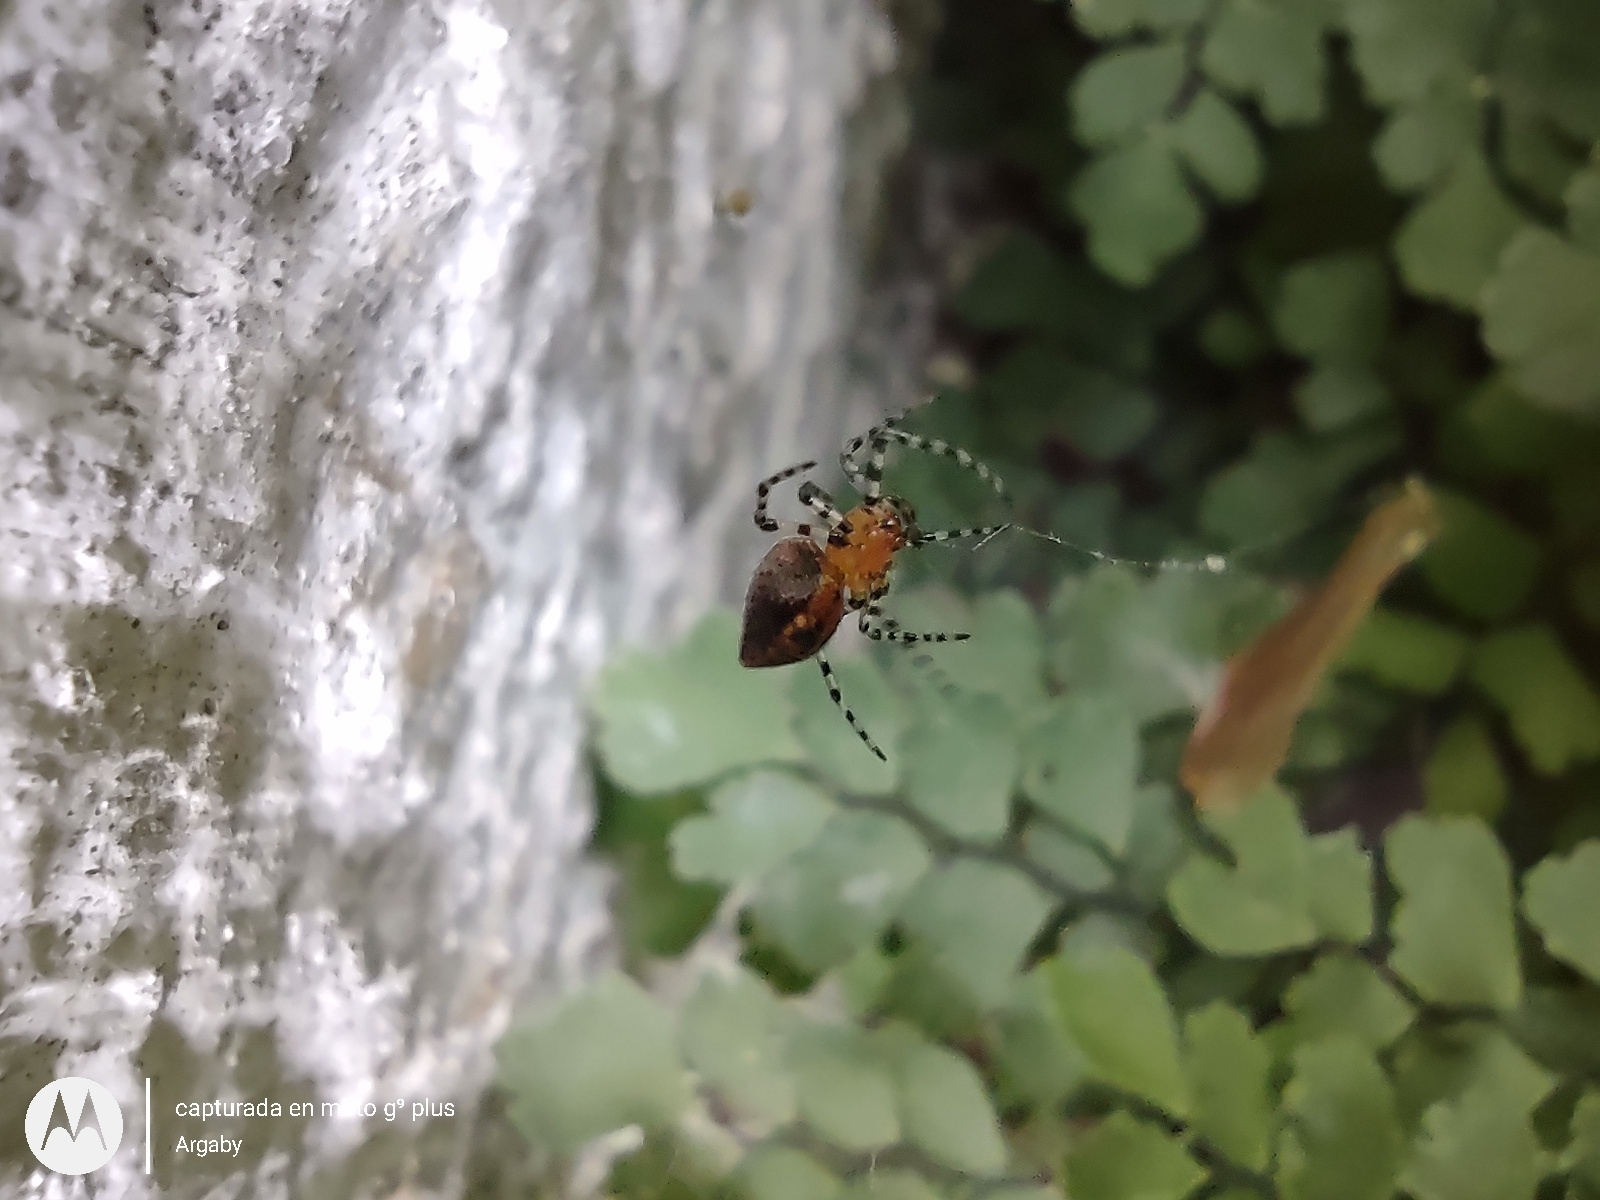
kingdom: Animalia
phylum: Arthropoda
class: Arachnida
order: Araneae
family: Araneidae
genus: Alpaida
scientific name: Alpaida gallardoi
